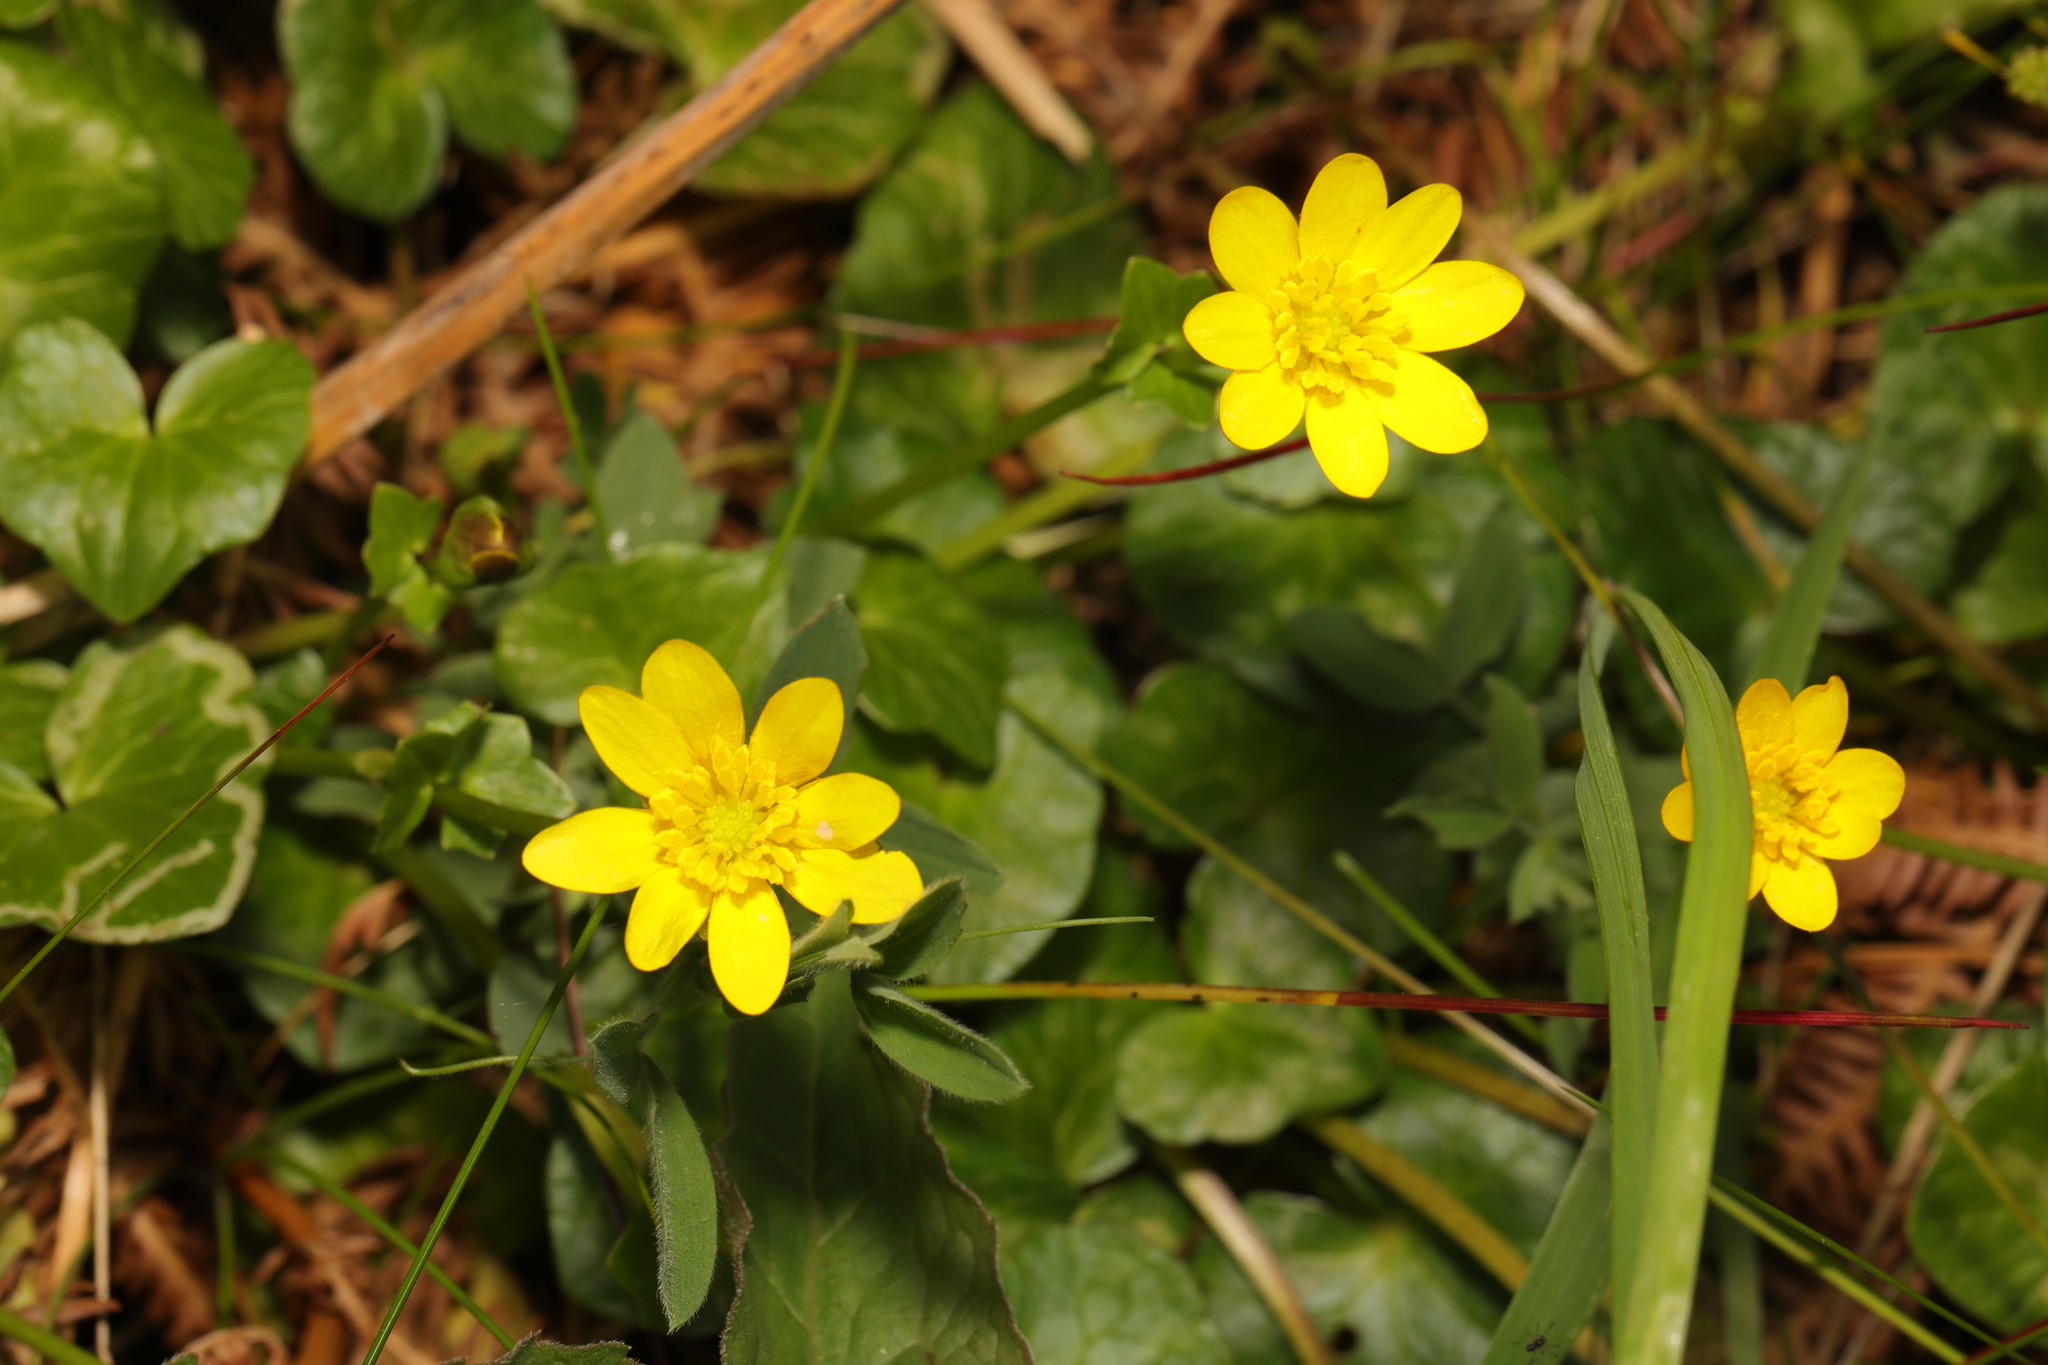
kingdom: Plantae
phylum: Tracheophyta
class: Magnoliopsida
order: Ranunculales
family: Ranunculaceae
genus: Ficaria
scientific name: Ficaria verna
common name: Lesser celandine
